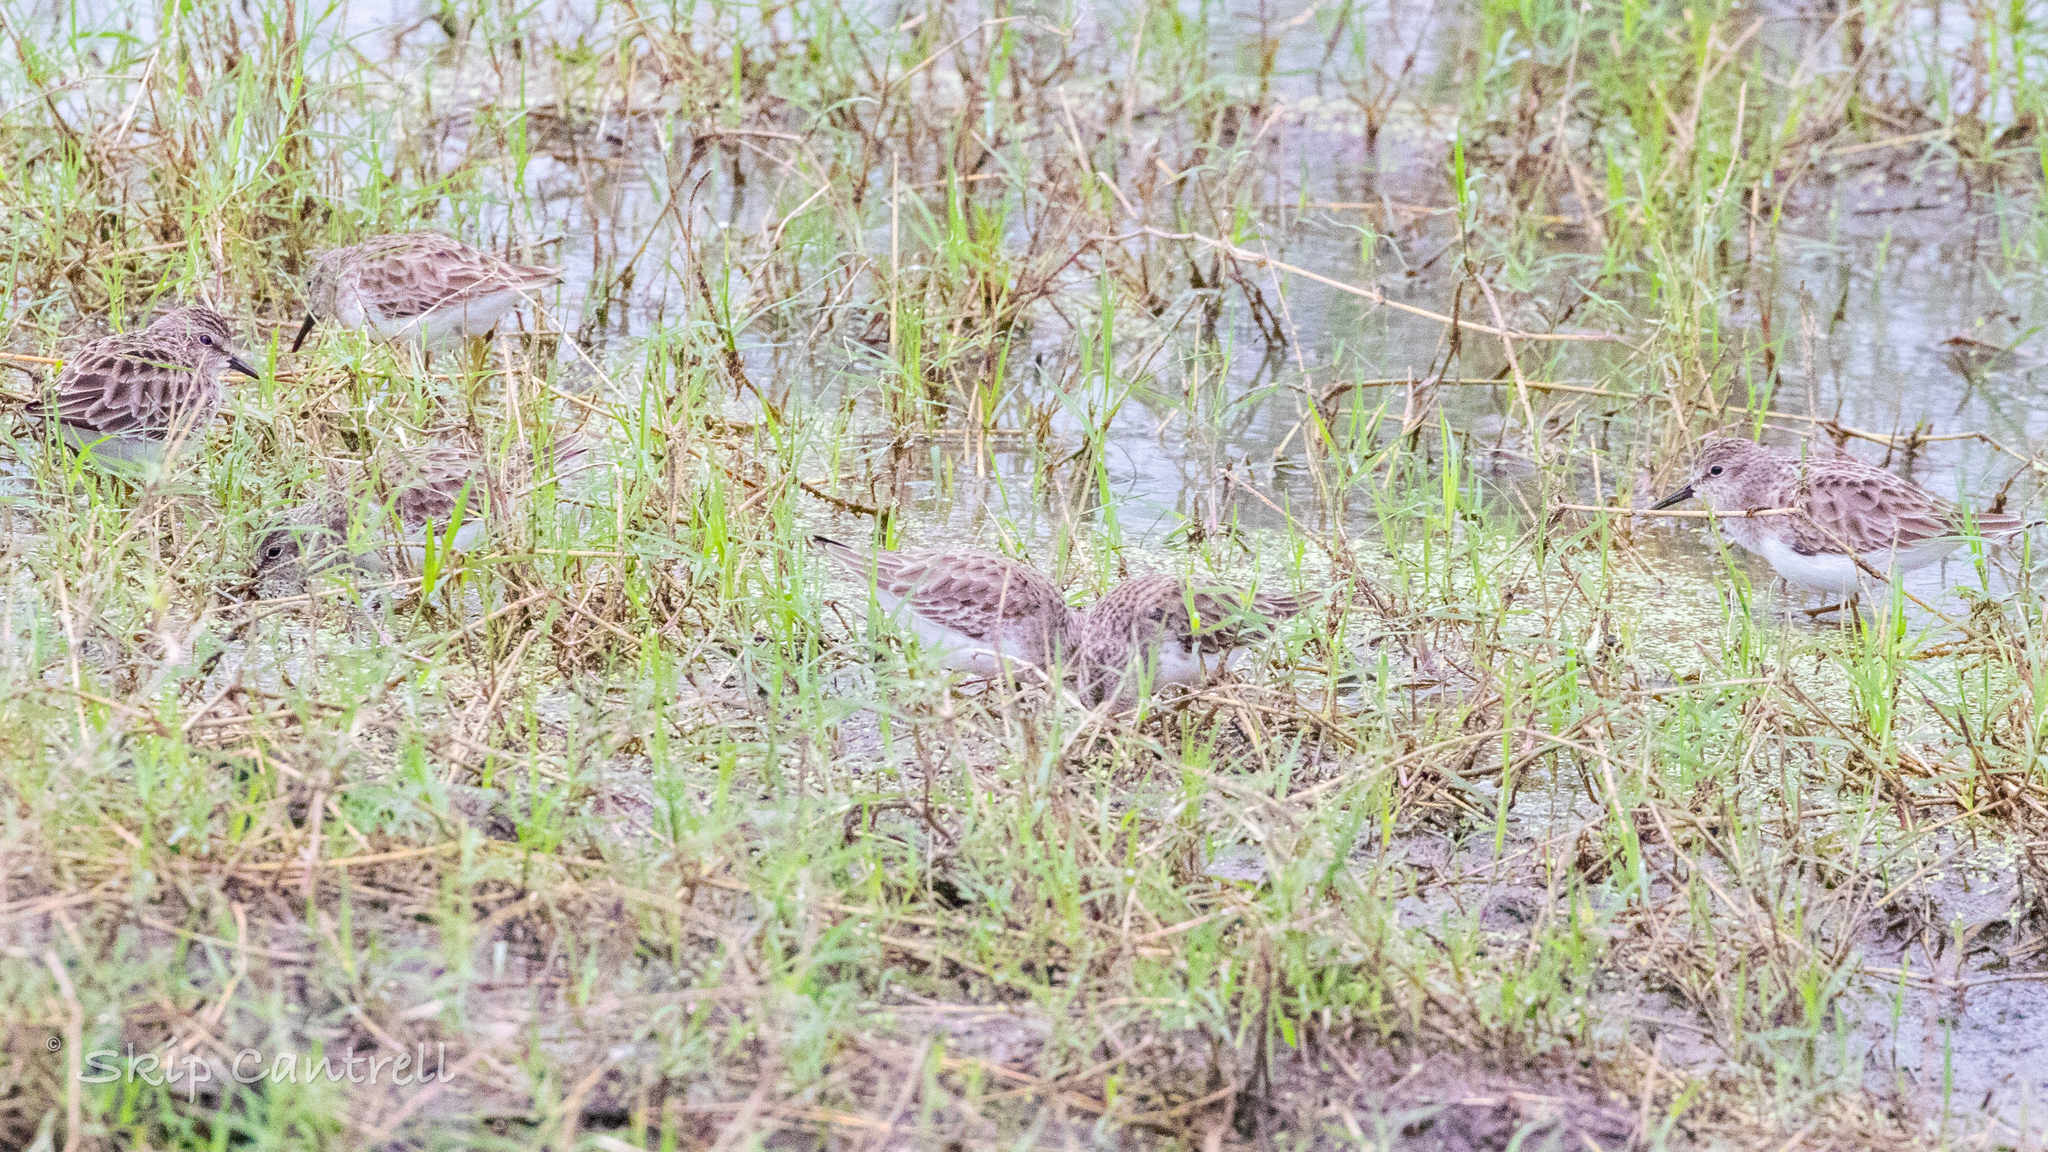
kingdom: Animalia
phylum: Chordata
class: Aves
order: Charadriiformes
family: Scolopacidae
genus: Calidris
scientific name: Calidris minutilla
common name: Least sandpiper
